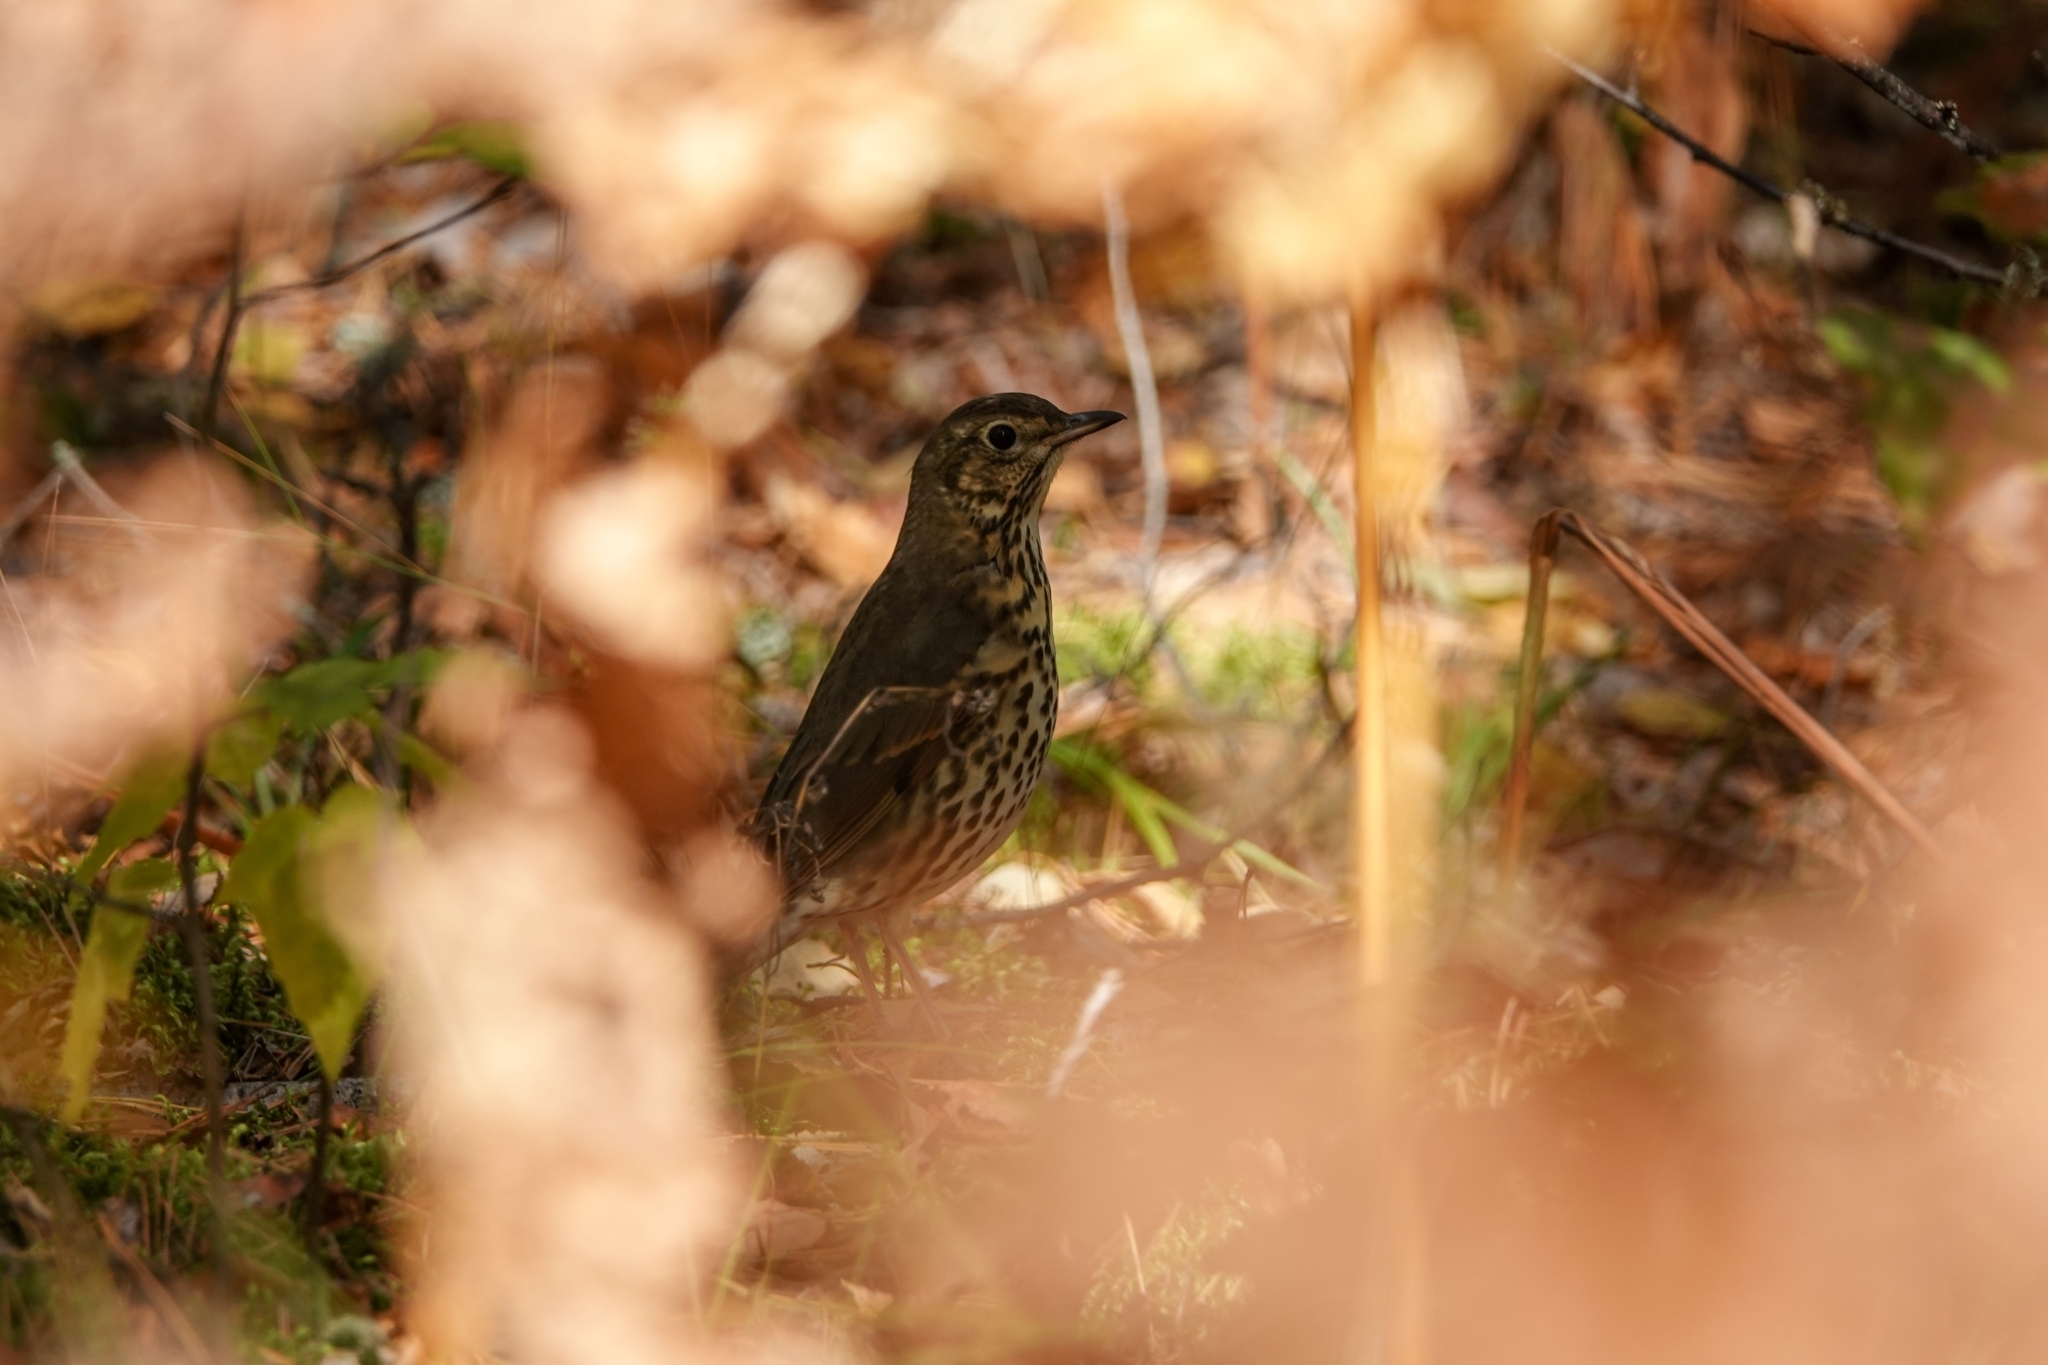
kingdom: Animalia
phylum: Chordata
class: Aves
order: Passeriformes
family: Turdidae
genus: Turdus
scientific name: Turdus philomelos
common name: Song thrush
